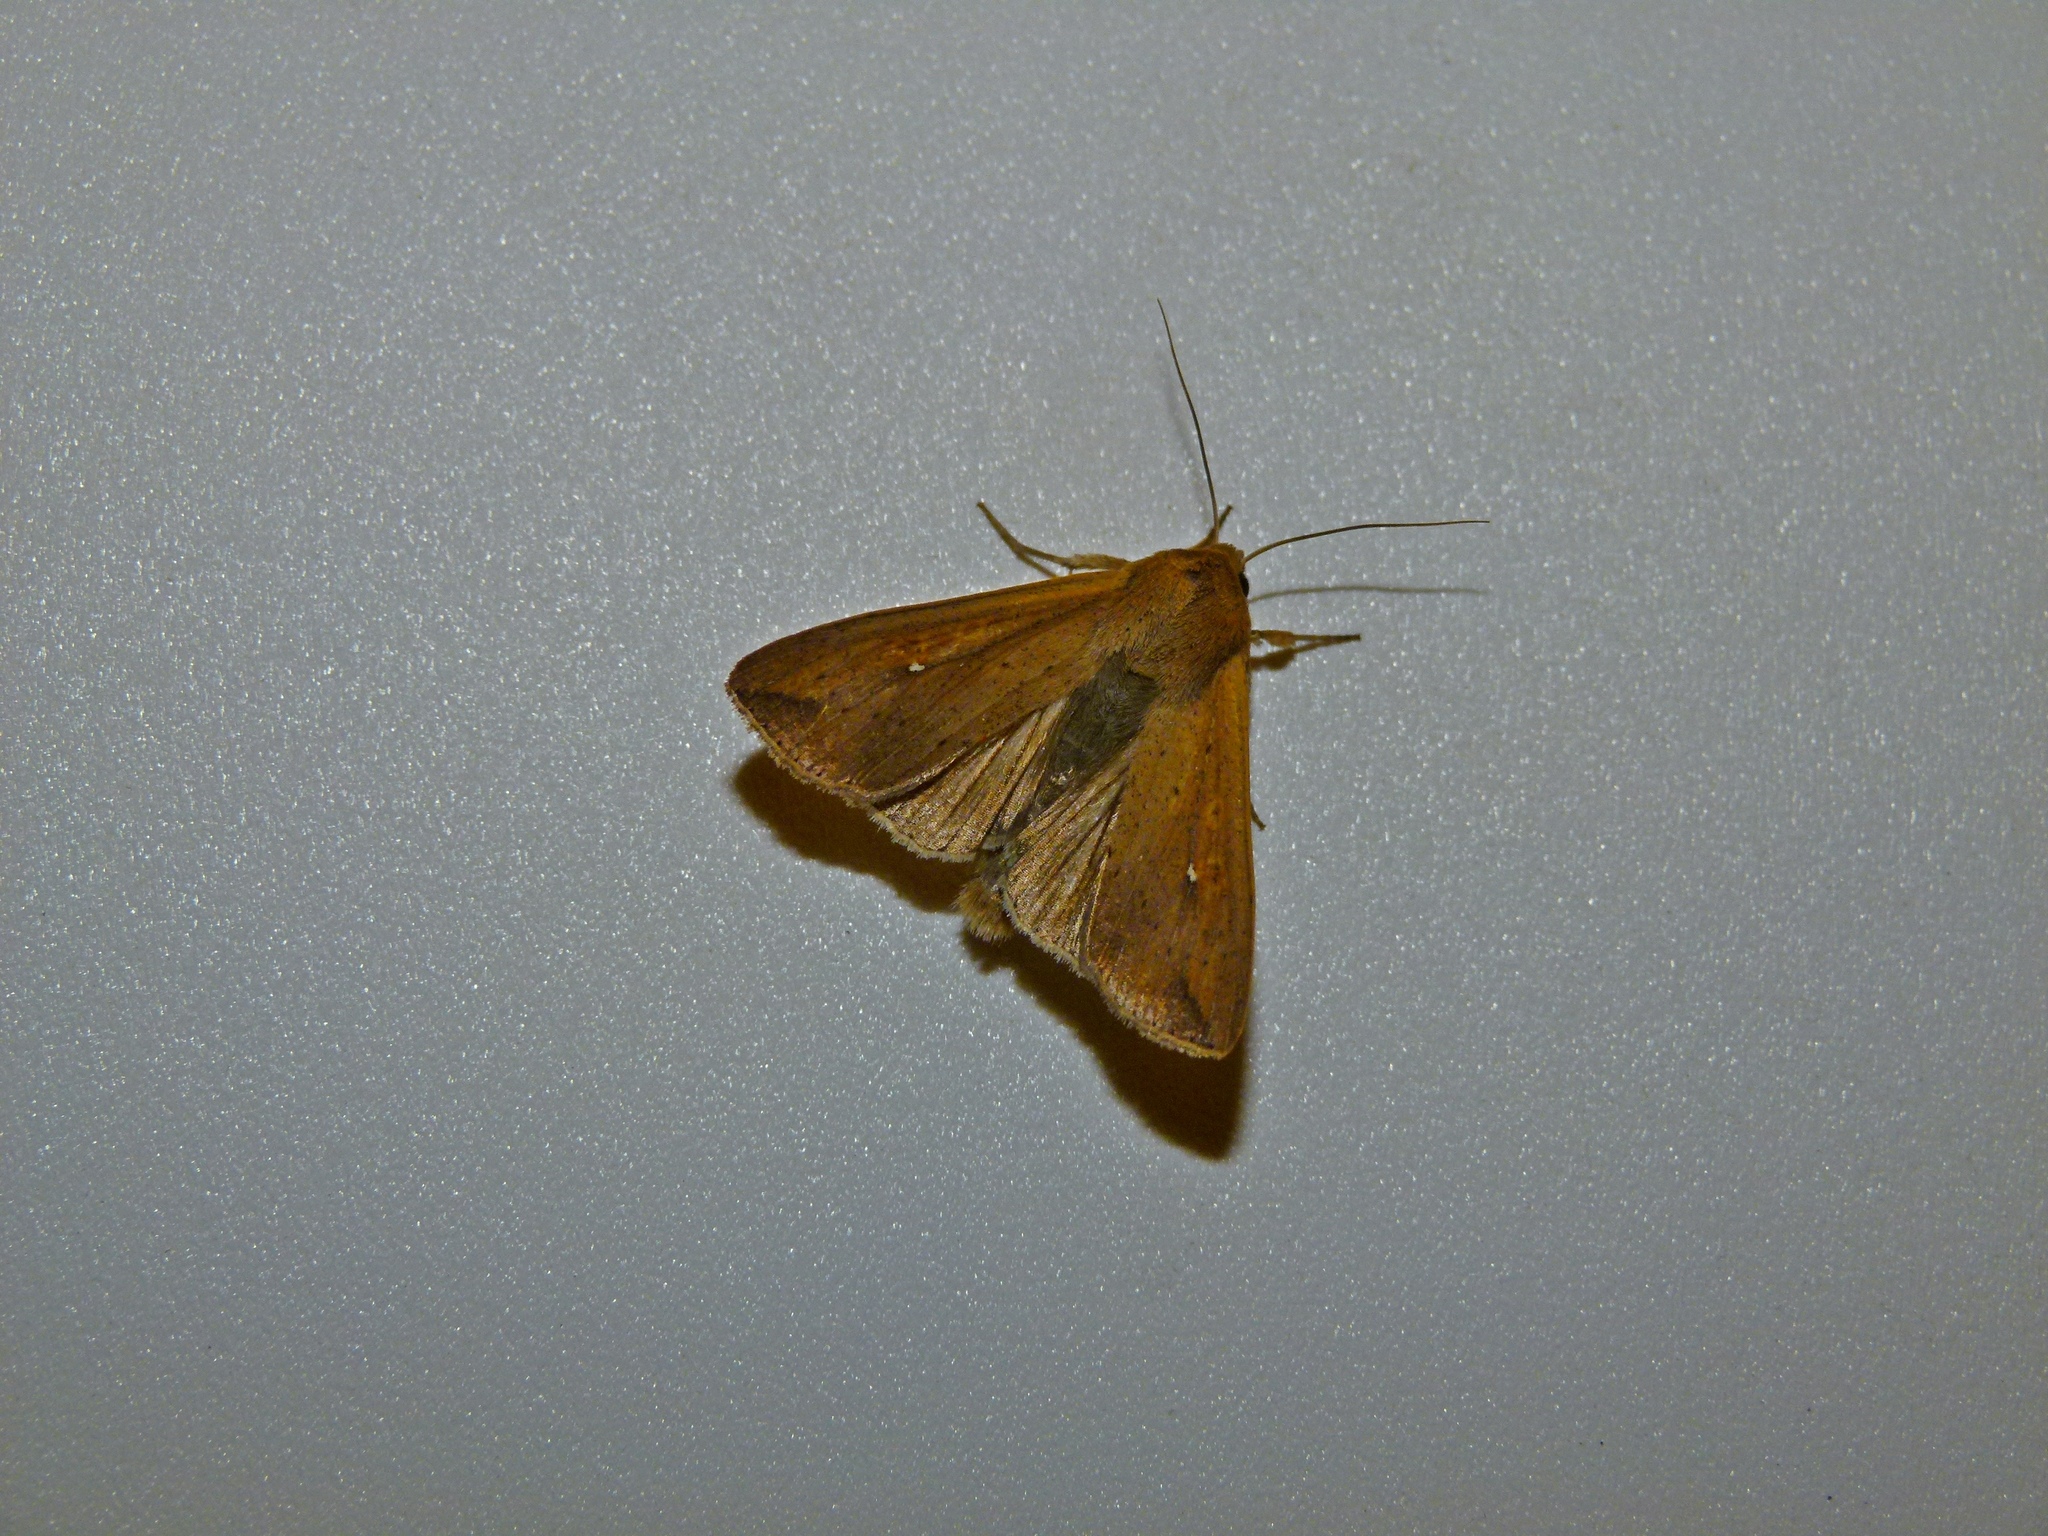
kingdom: Animalia
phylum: Arthropoda
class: Insecta
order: Lepidoptera
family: Noctuidae
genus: Mythimna
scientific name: Mythimna unipuncta
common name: White-speck
